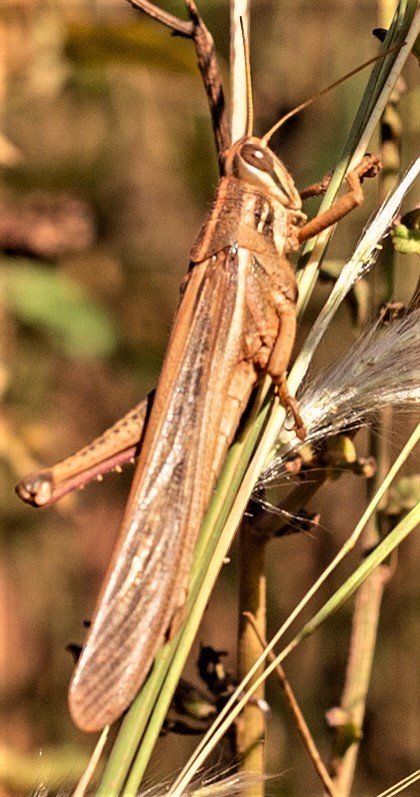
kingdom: Animalia
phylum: Arthropoda
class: Insecta
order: Orthoptera
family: Acrididae
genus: Schistocerca
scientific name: Schistocerca pallens
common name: Bird grasshopper
